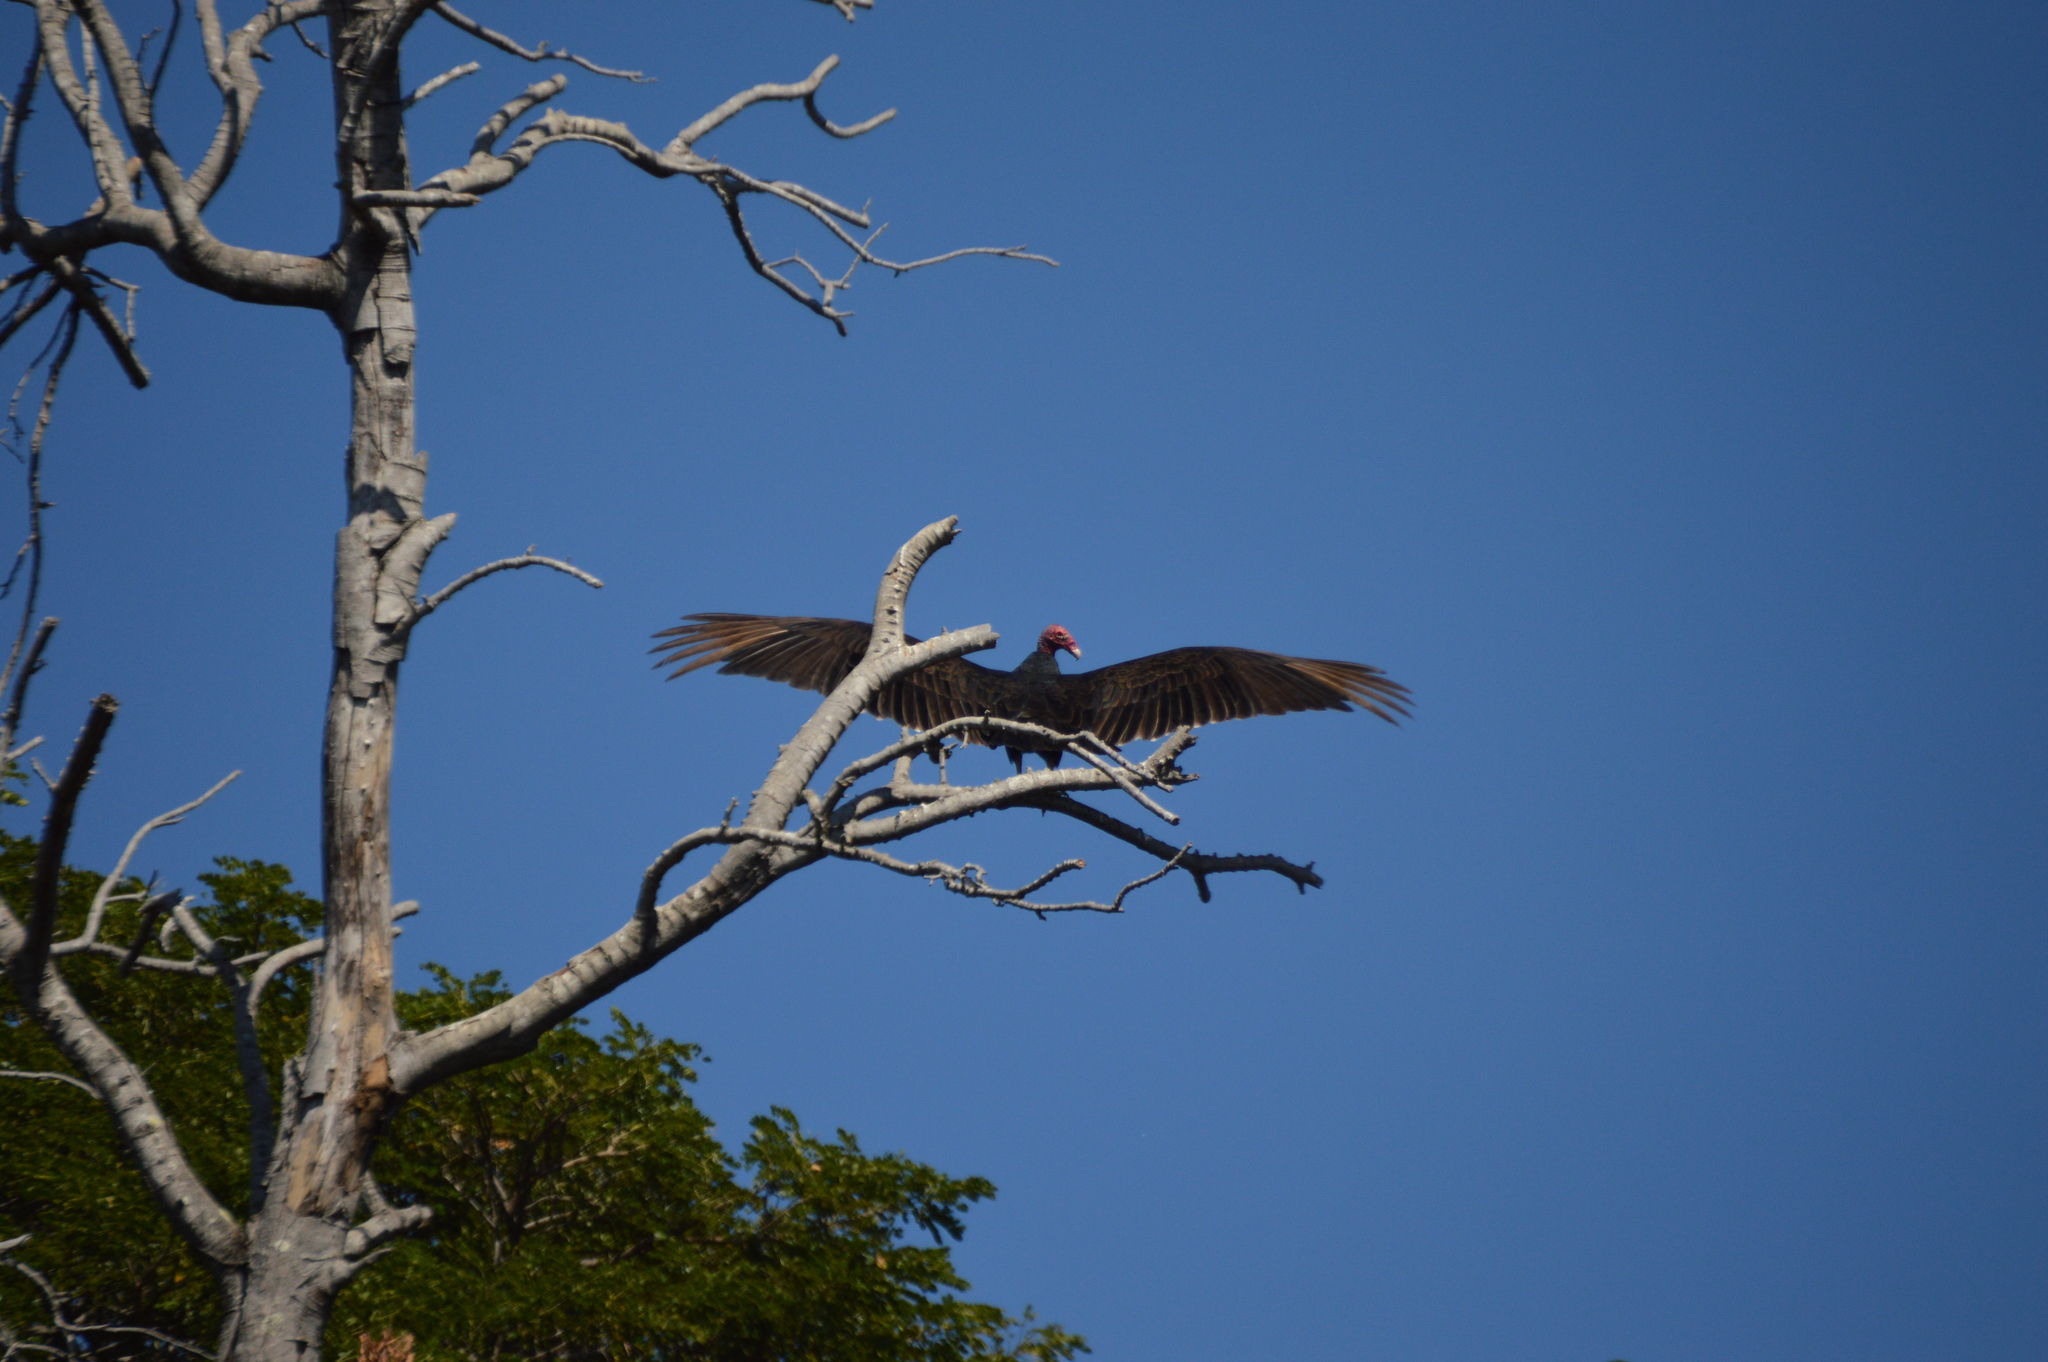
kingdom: Animalia
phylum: Chordata
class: Aves
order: Accipitriformes
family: Cathartidae
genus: Cathartes
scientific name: Cathartes aura
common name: Turkey vulture
